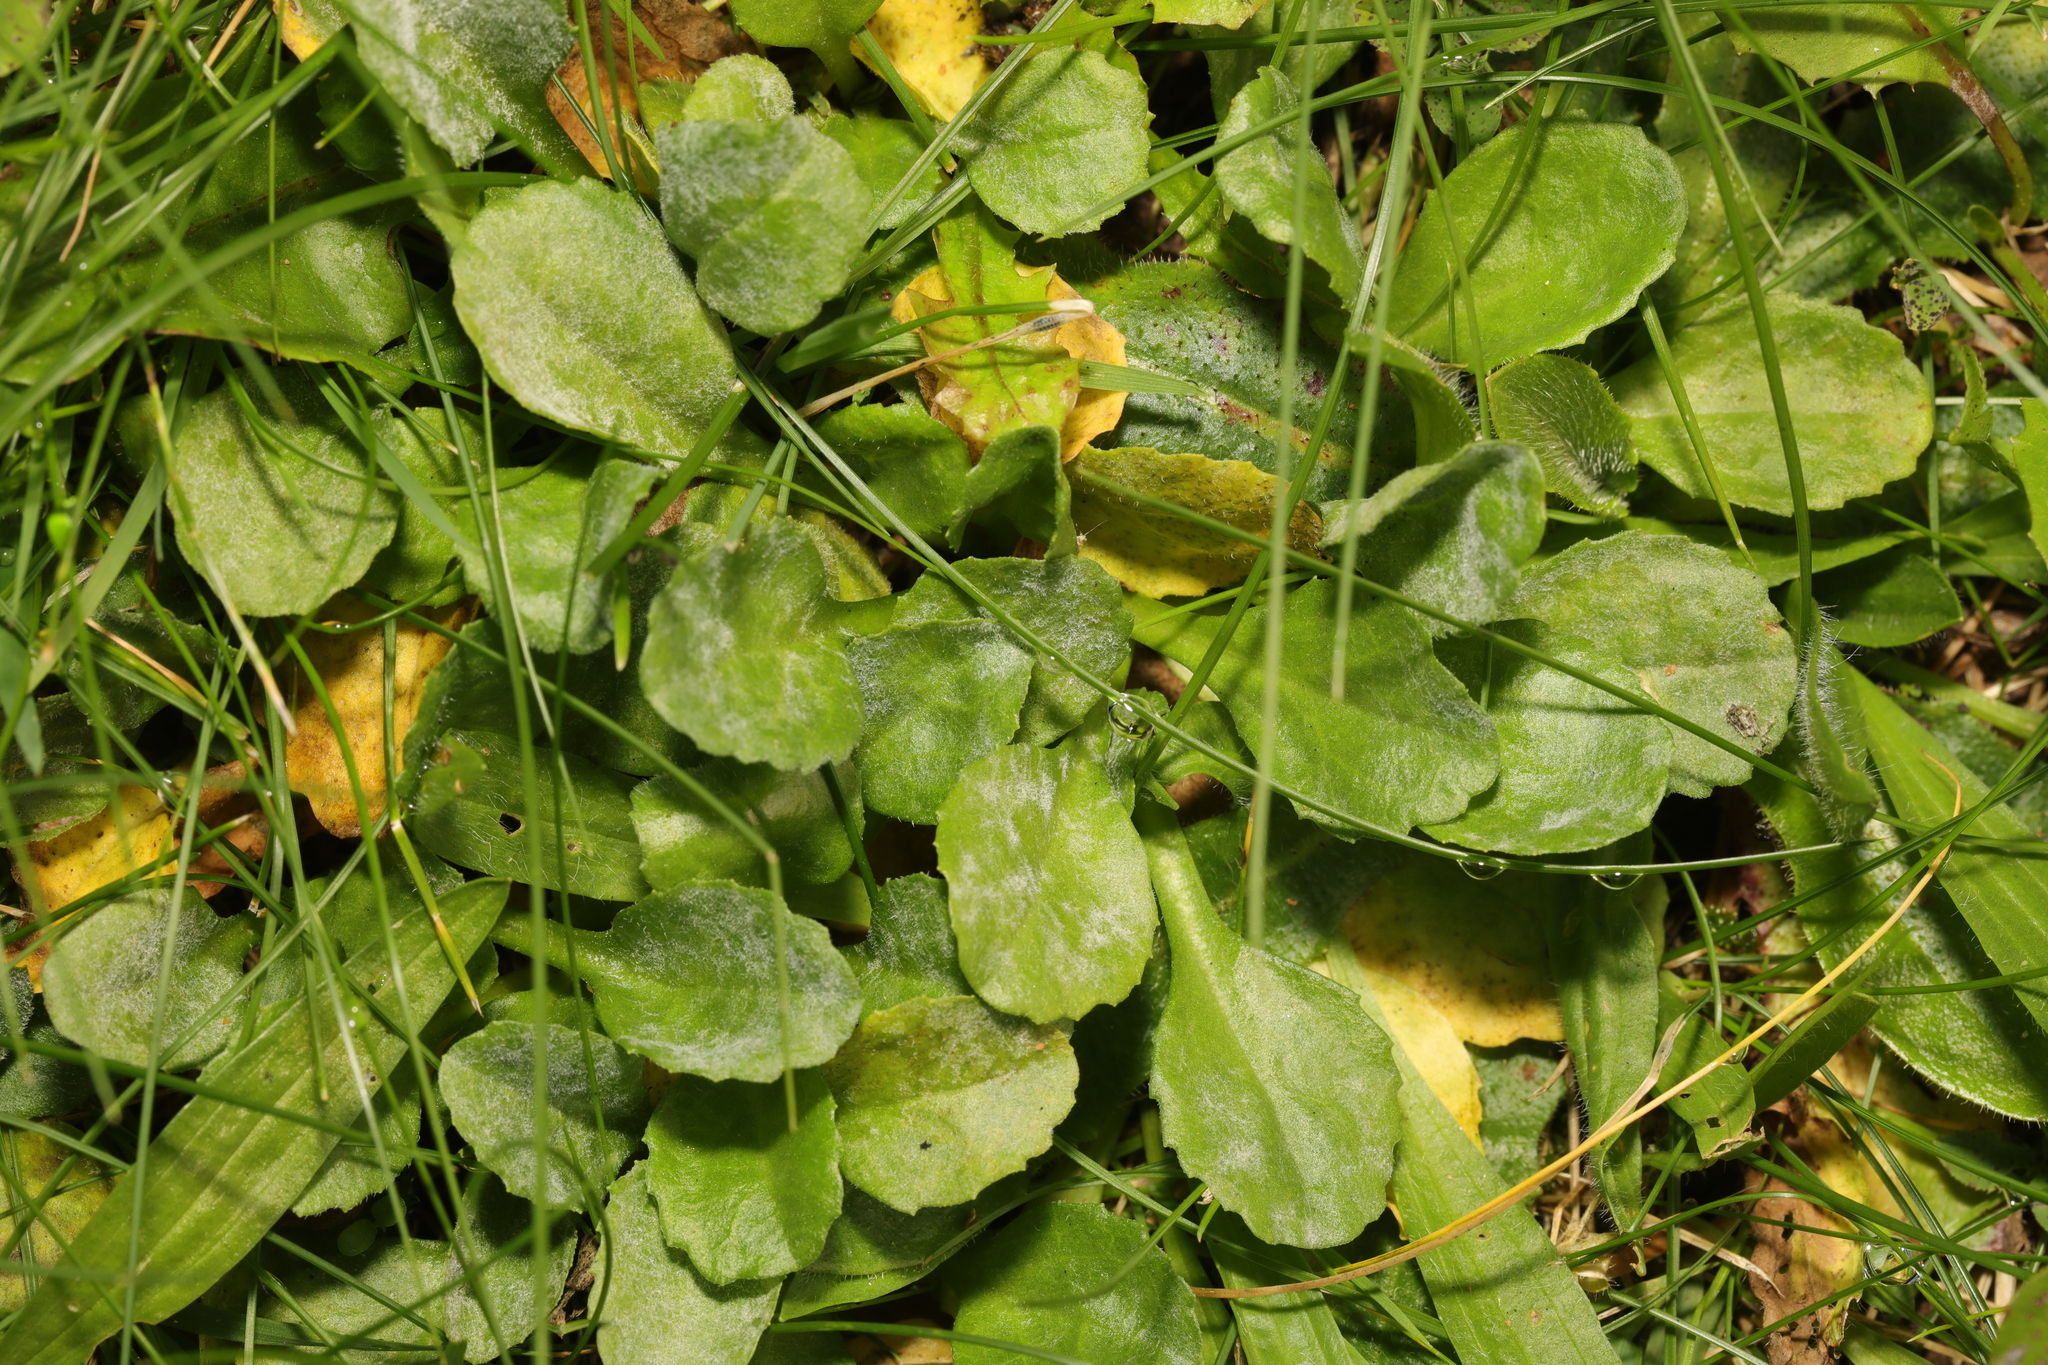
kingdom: Plantae
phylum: Tracheophyta
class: Magnoliopsida
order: Asterales
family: Asteraceae
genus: Bellis
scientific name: Bellis perennis
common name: Lawndaisy
